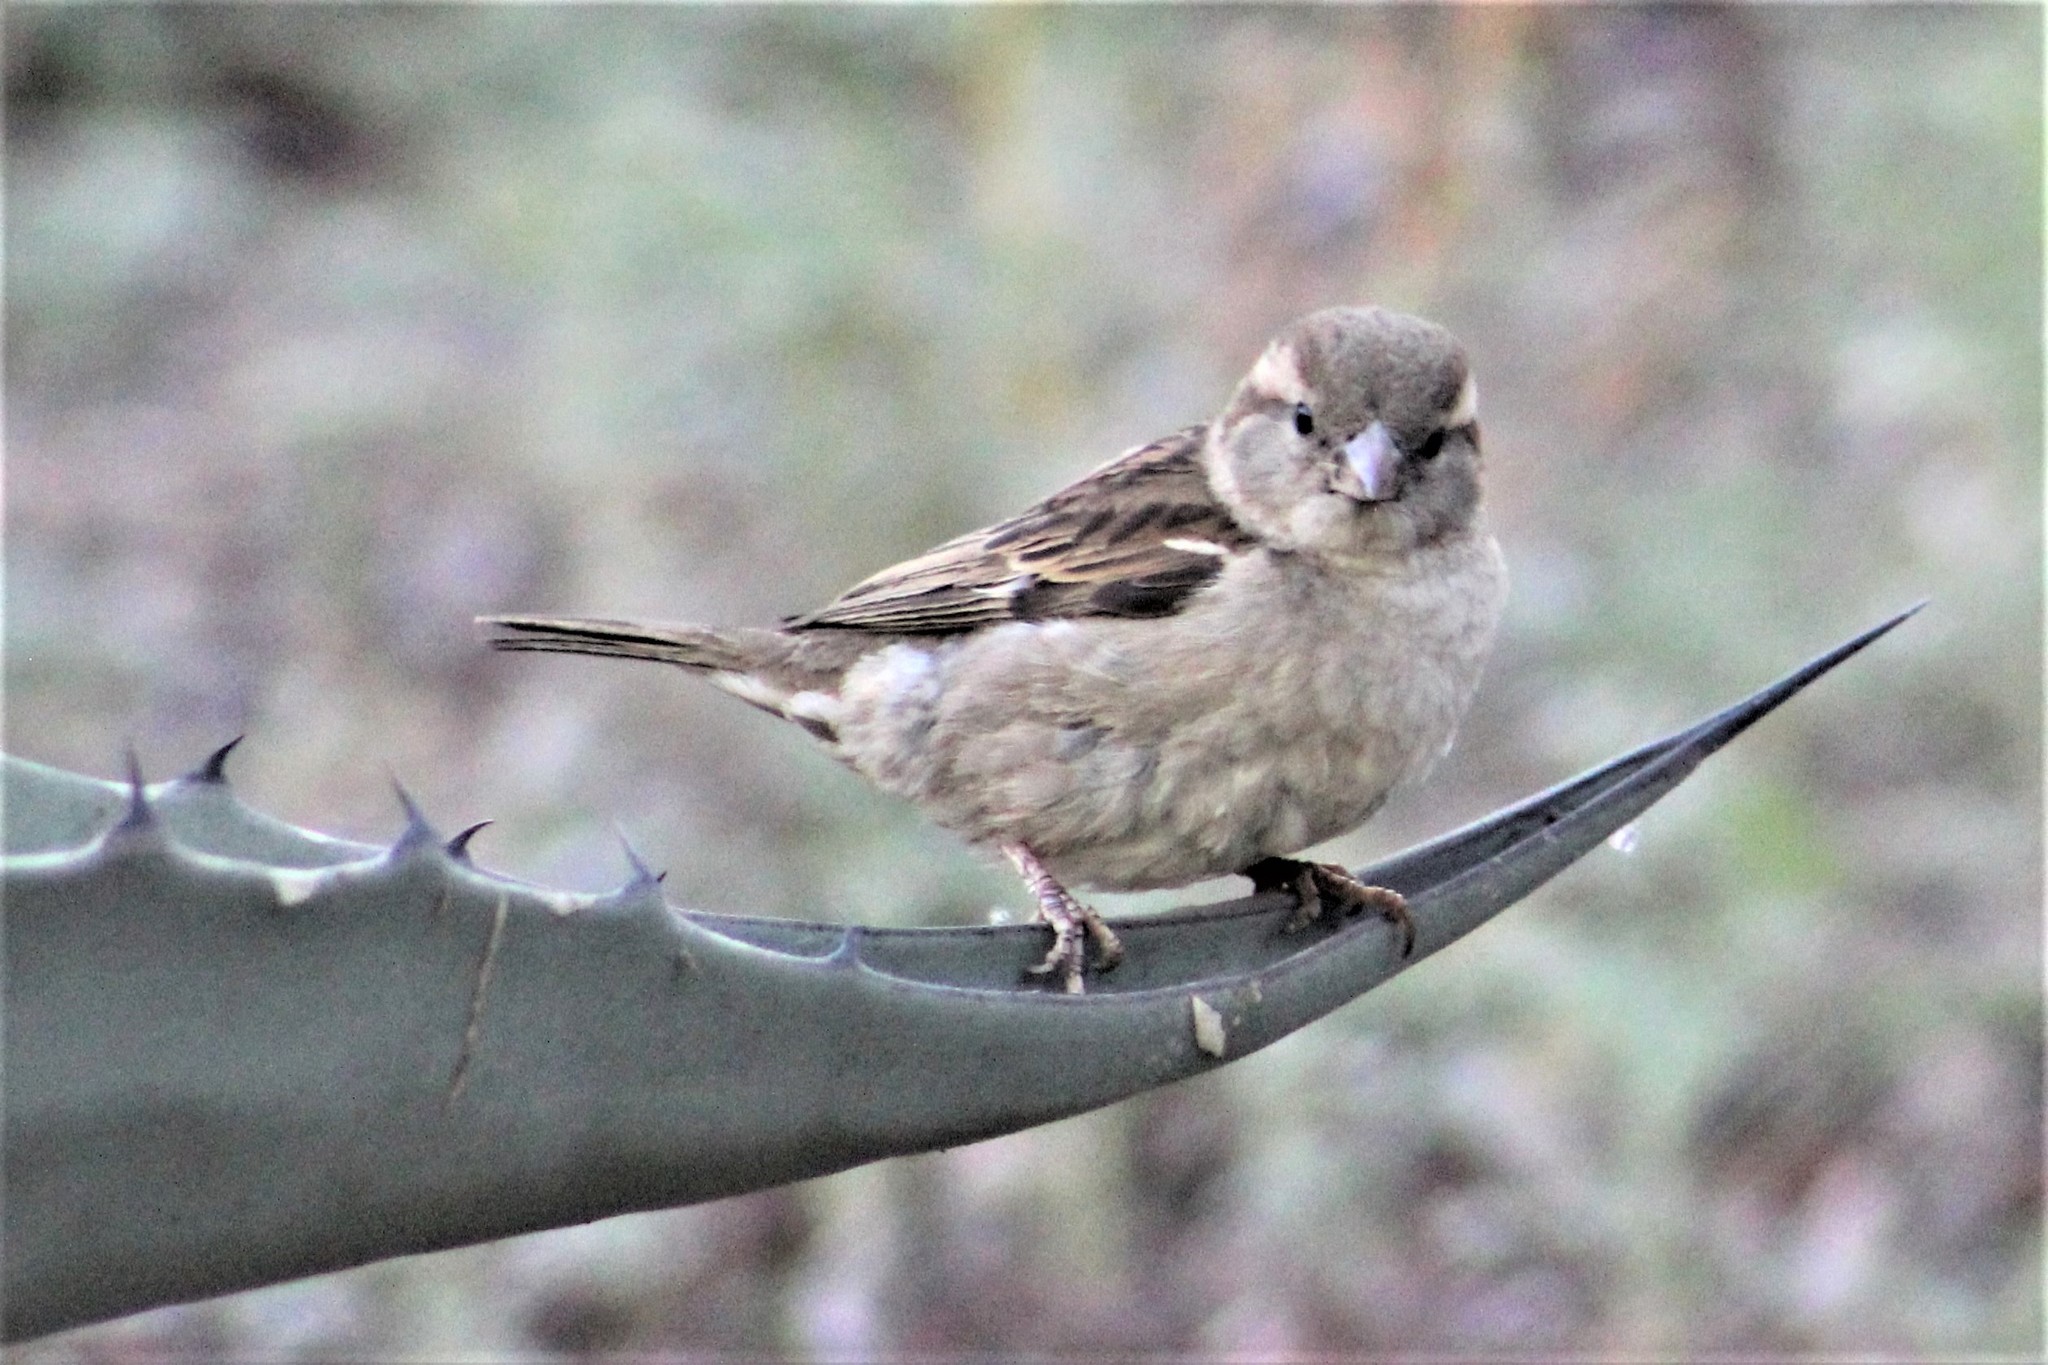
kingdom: Animalia
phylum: Chordata
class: Aves
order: Passeriformes
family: Passeridae
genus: Passer
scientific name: Passer domesticus
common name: House sparrow
